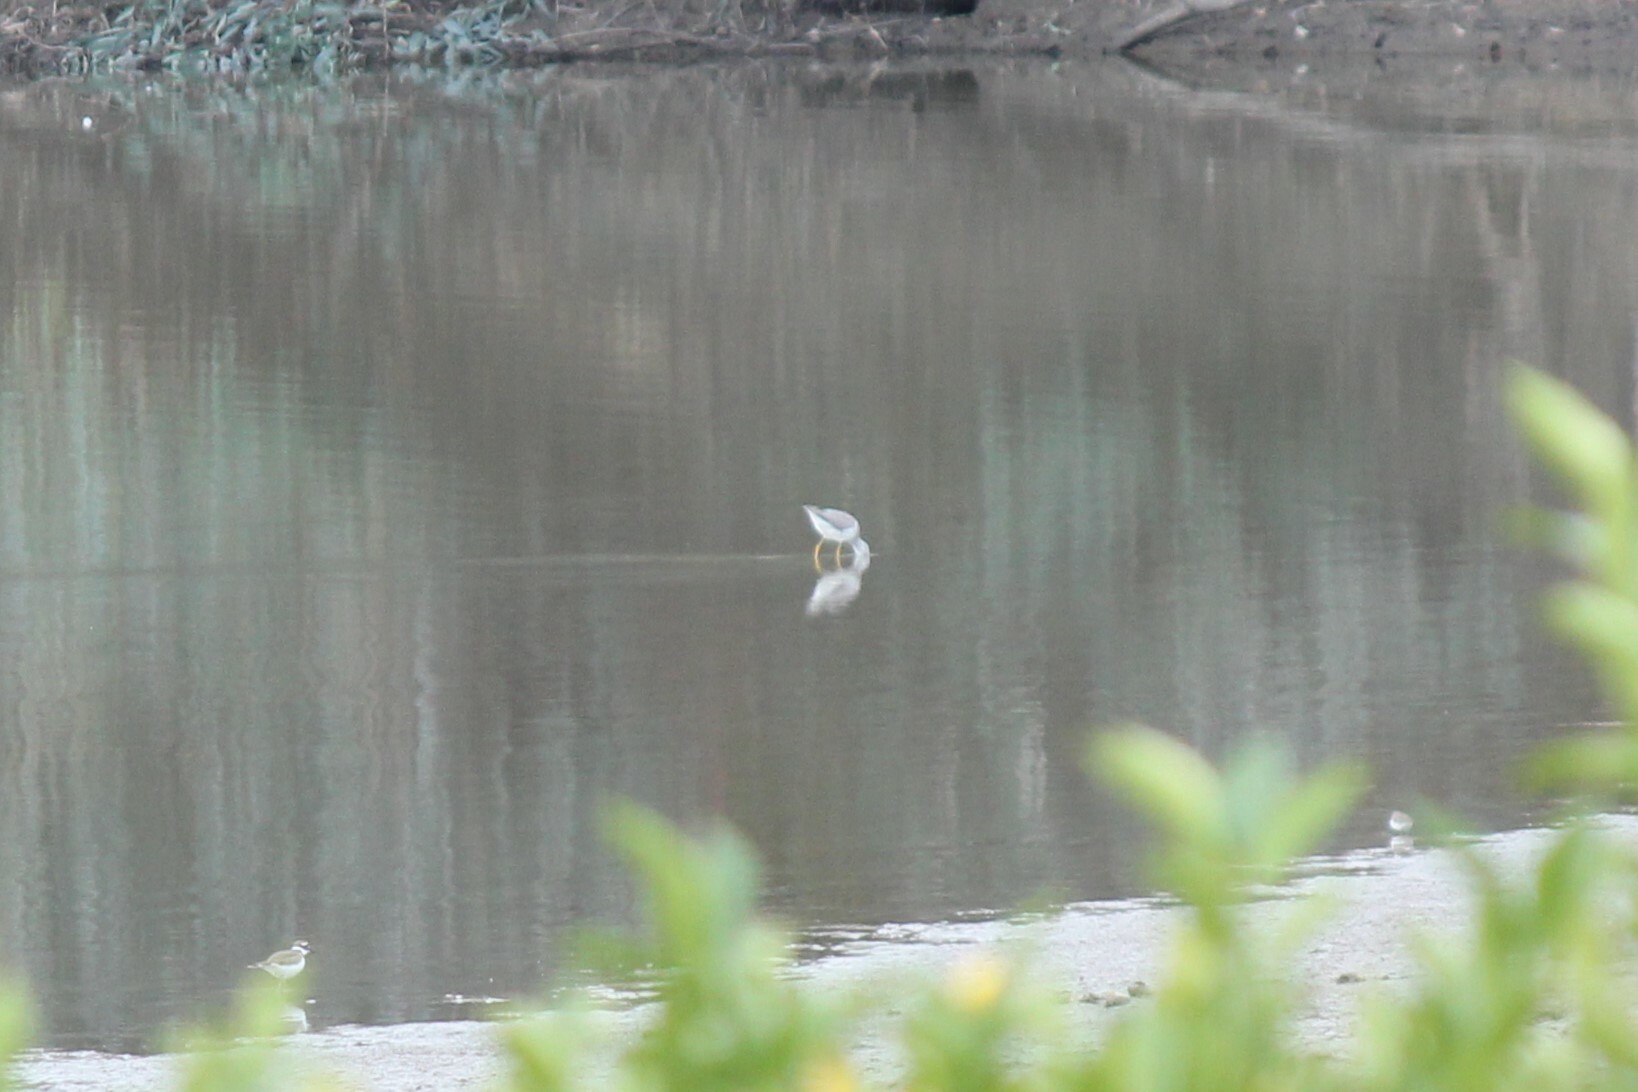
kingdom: Animalia
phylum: Chordata
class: Aves
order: Charadriiformes
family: Scolopacidae
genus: Tringa
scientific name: Tringa melanoleuca
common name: Greater yellowlegs
